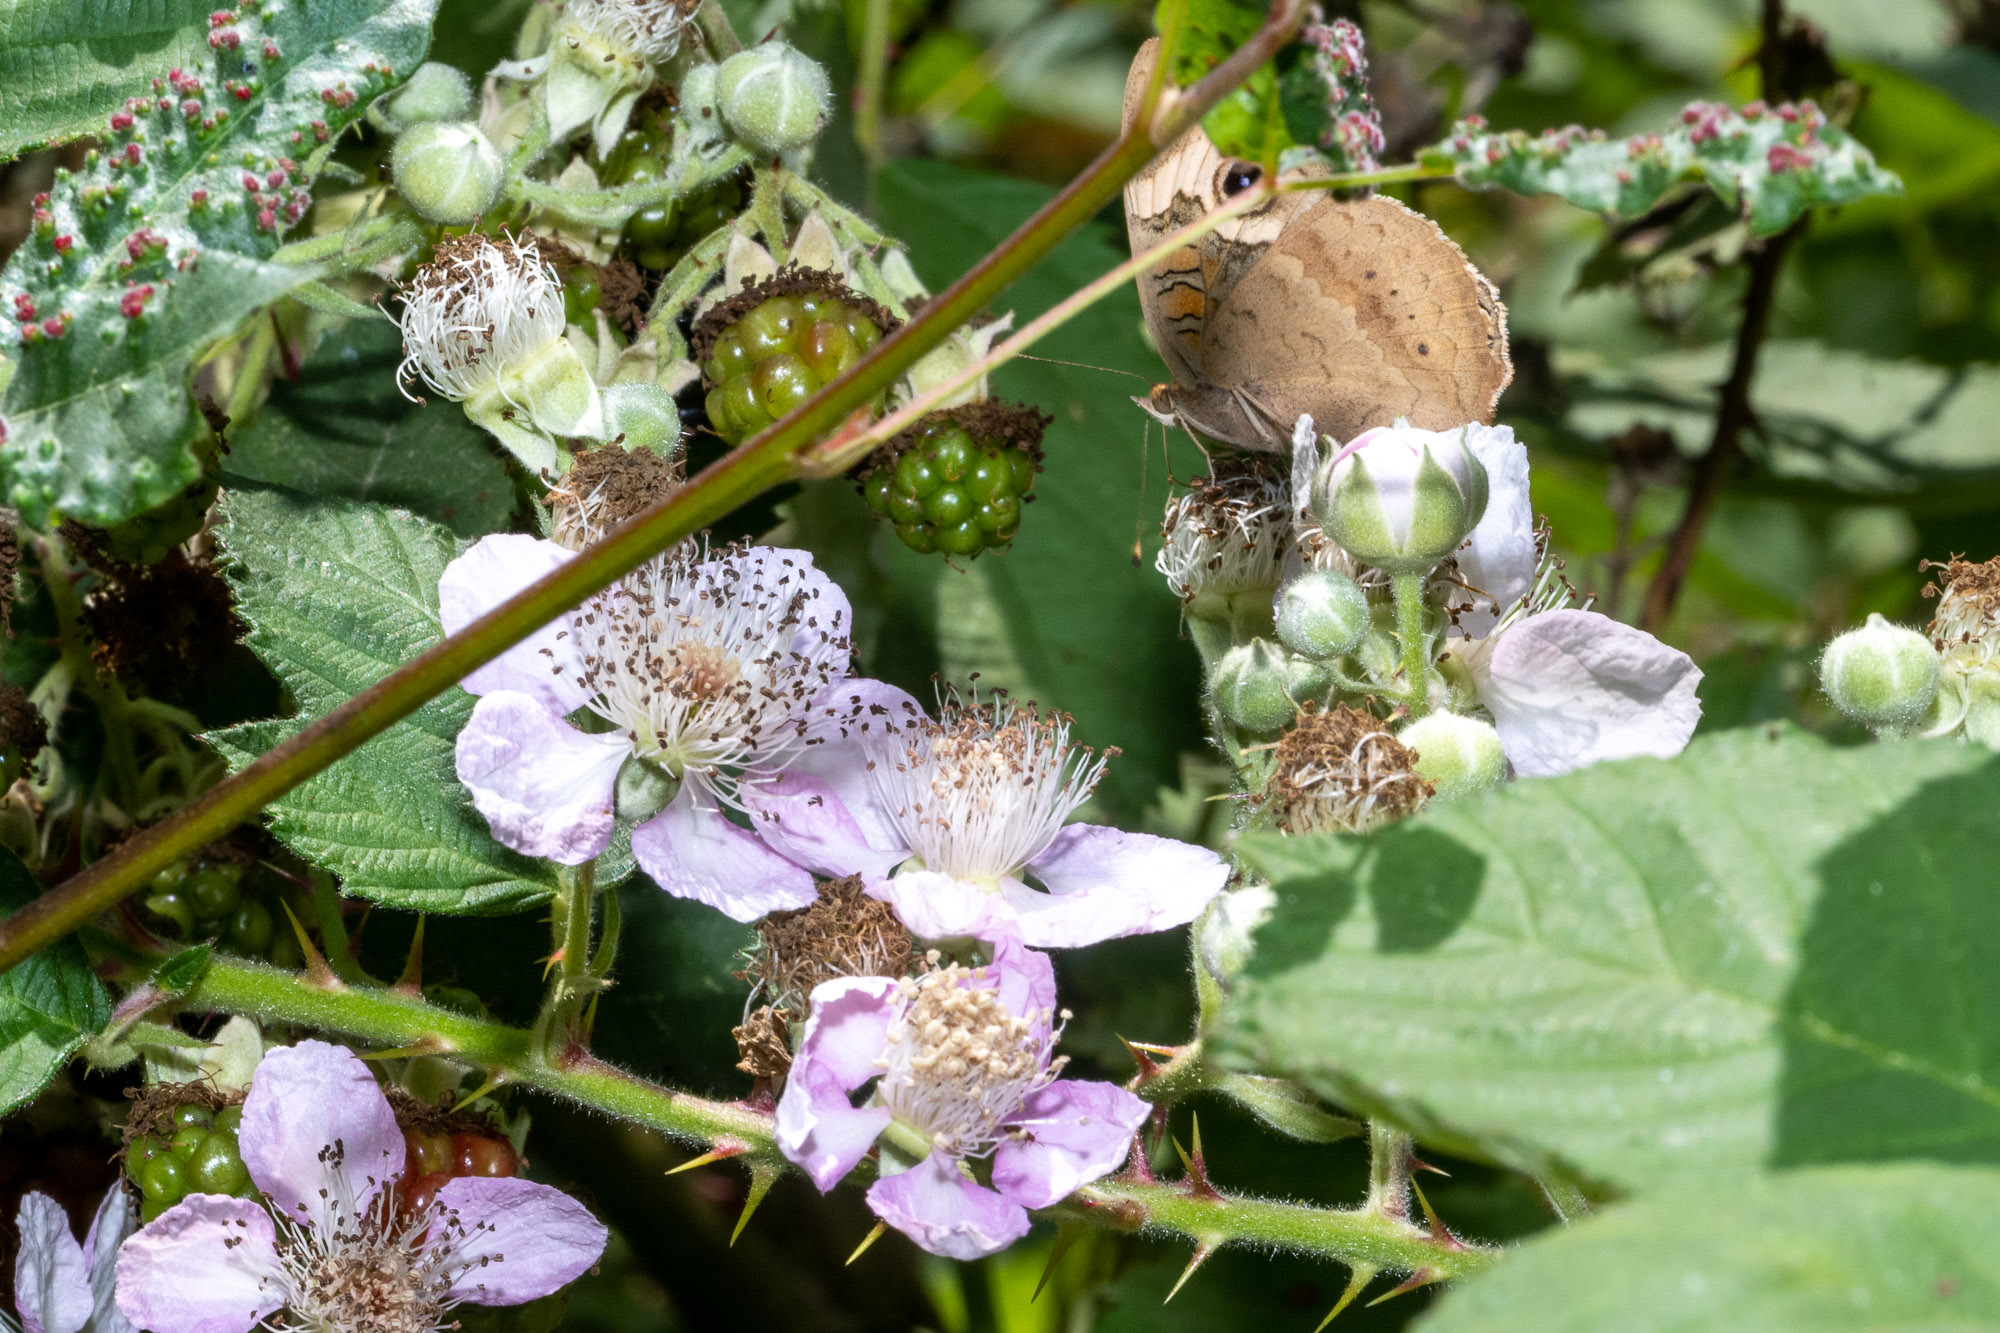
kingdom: Animalia
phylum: Arthropoda
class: Insecta
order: Lepidoptera
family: Nymphalidae
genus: Junonia
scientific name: Junonia grisea
